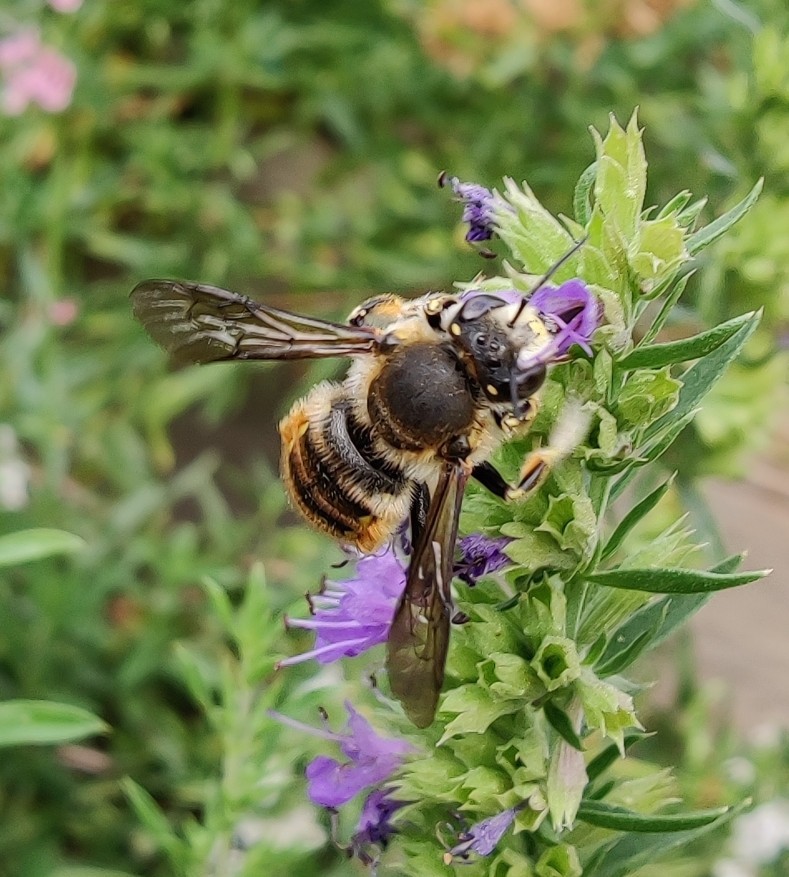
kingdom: Animalia
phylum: Arthropoda
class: Insecta
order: Hymenoptera
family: Megachilidae
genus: Anthidium
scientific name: Anthidium manicatum
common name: Wool carder bee
